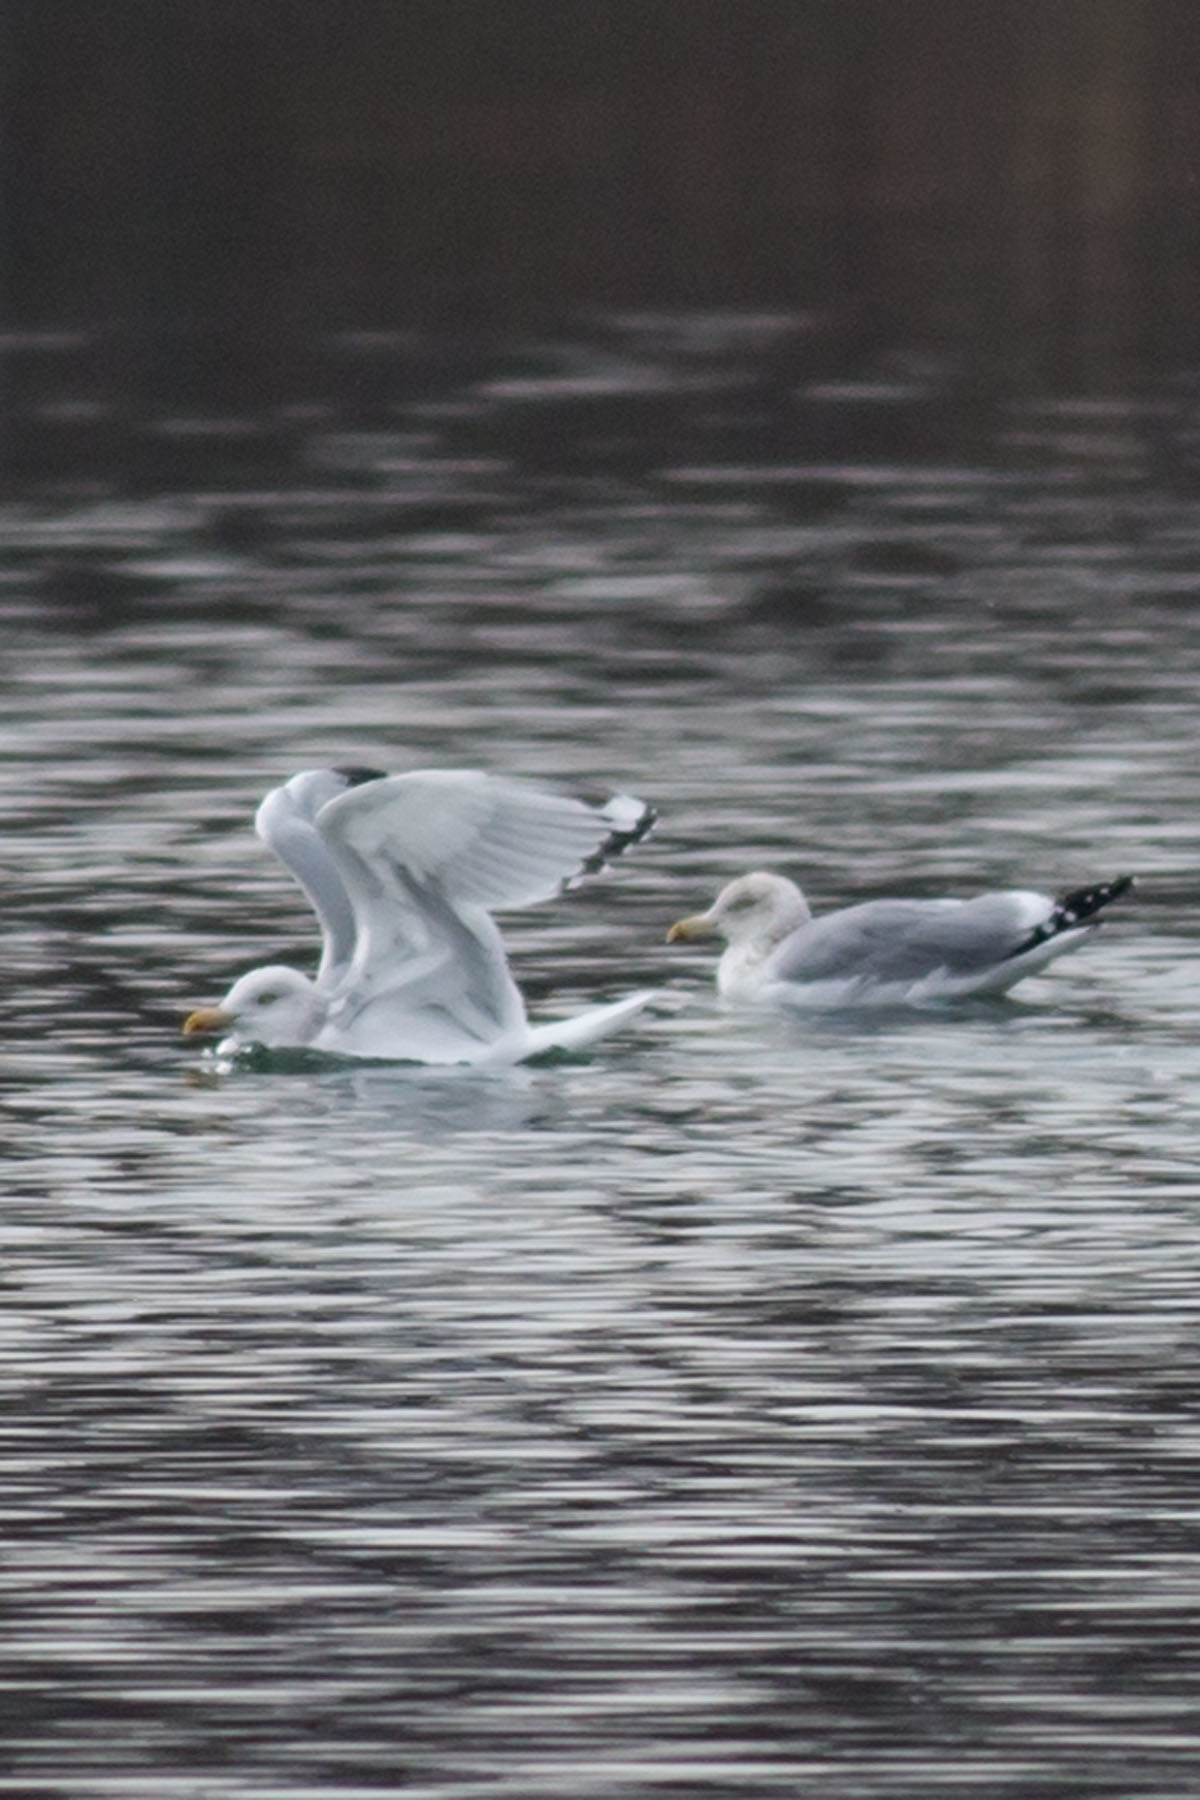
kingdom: Animalia
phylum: Chordata
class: Aves
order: Charadriiformes
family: Laridae
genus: Larus
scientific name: Larus argentatus
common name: Herring gull
